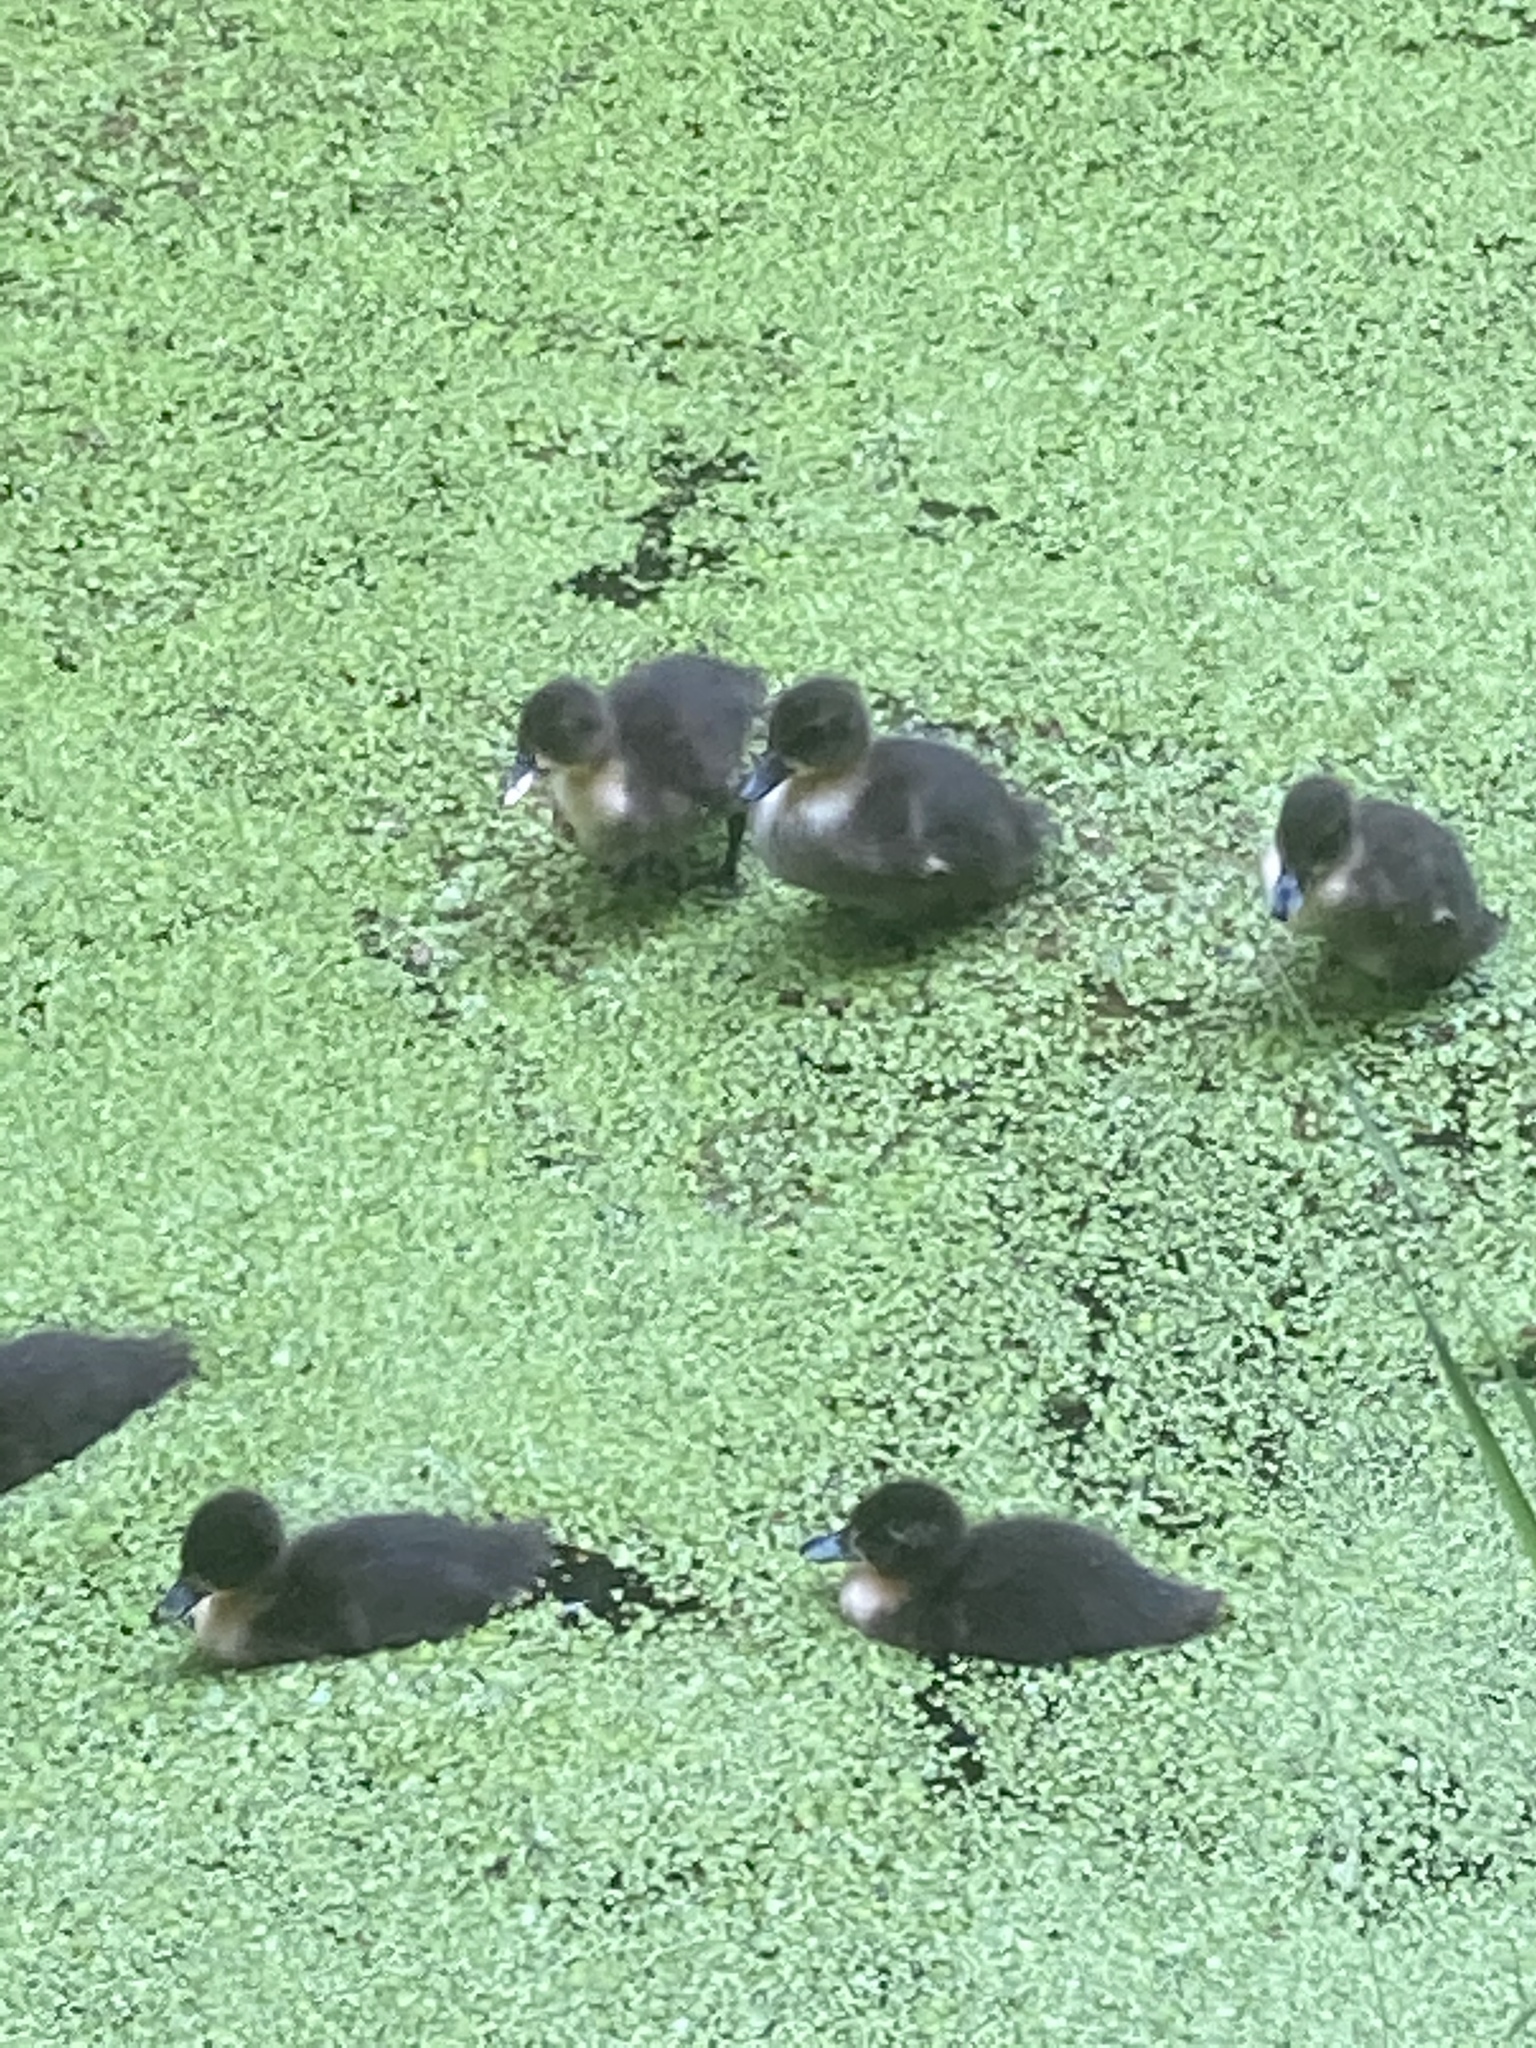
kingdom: Animalia
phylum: Chordata
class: Aves
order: Anseriformes
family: Anatidae
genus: Anas
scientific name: Anas platyrhynchos
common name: Mallard
